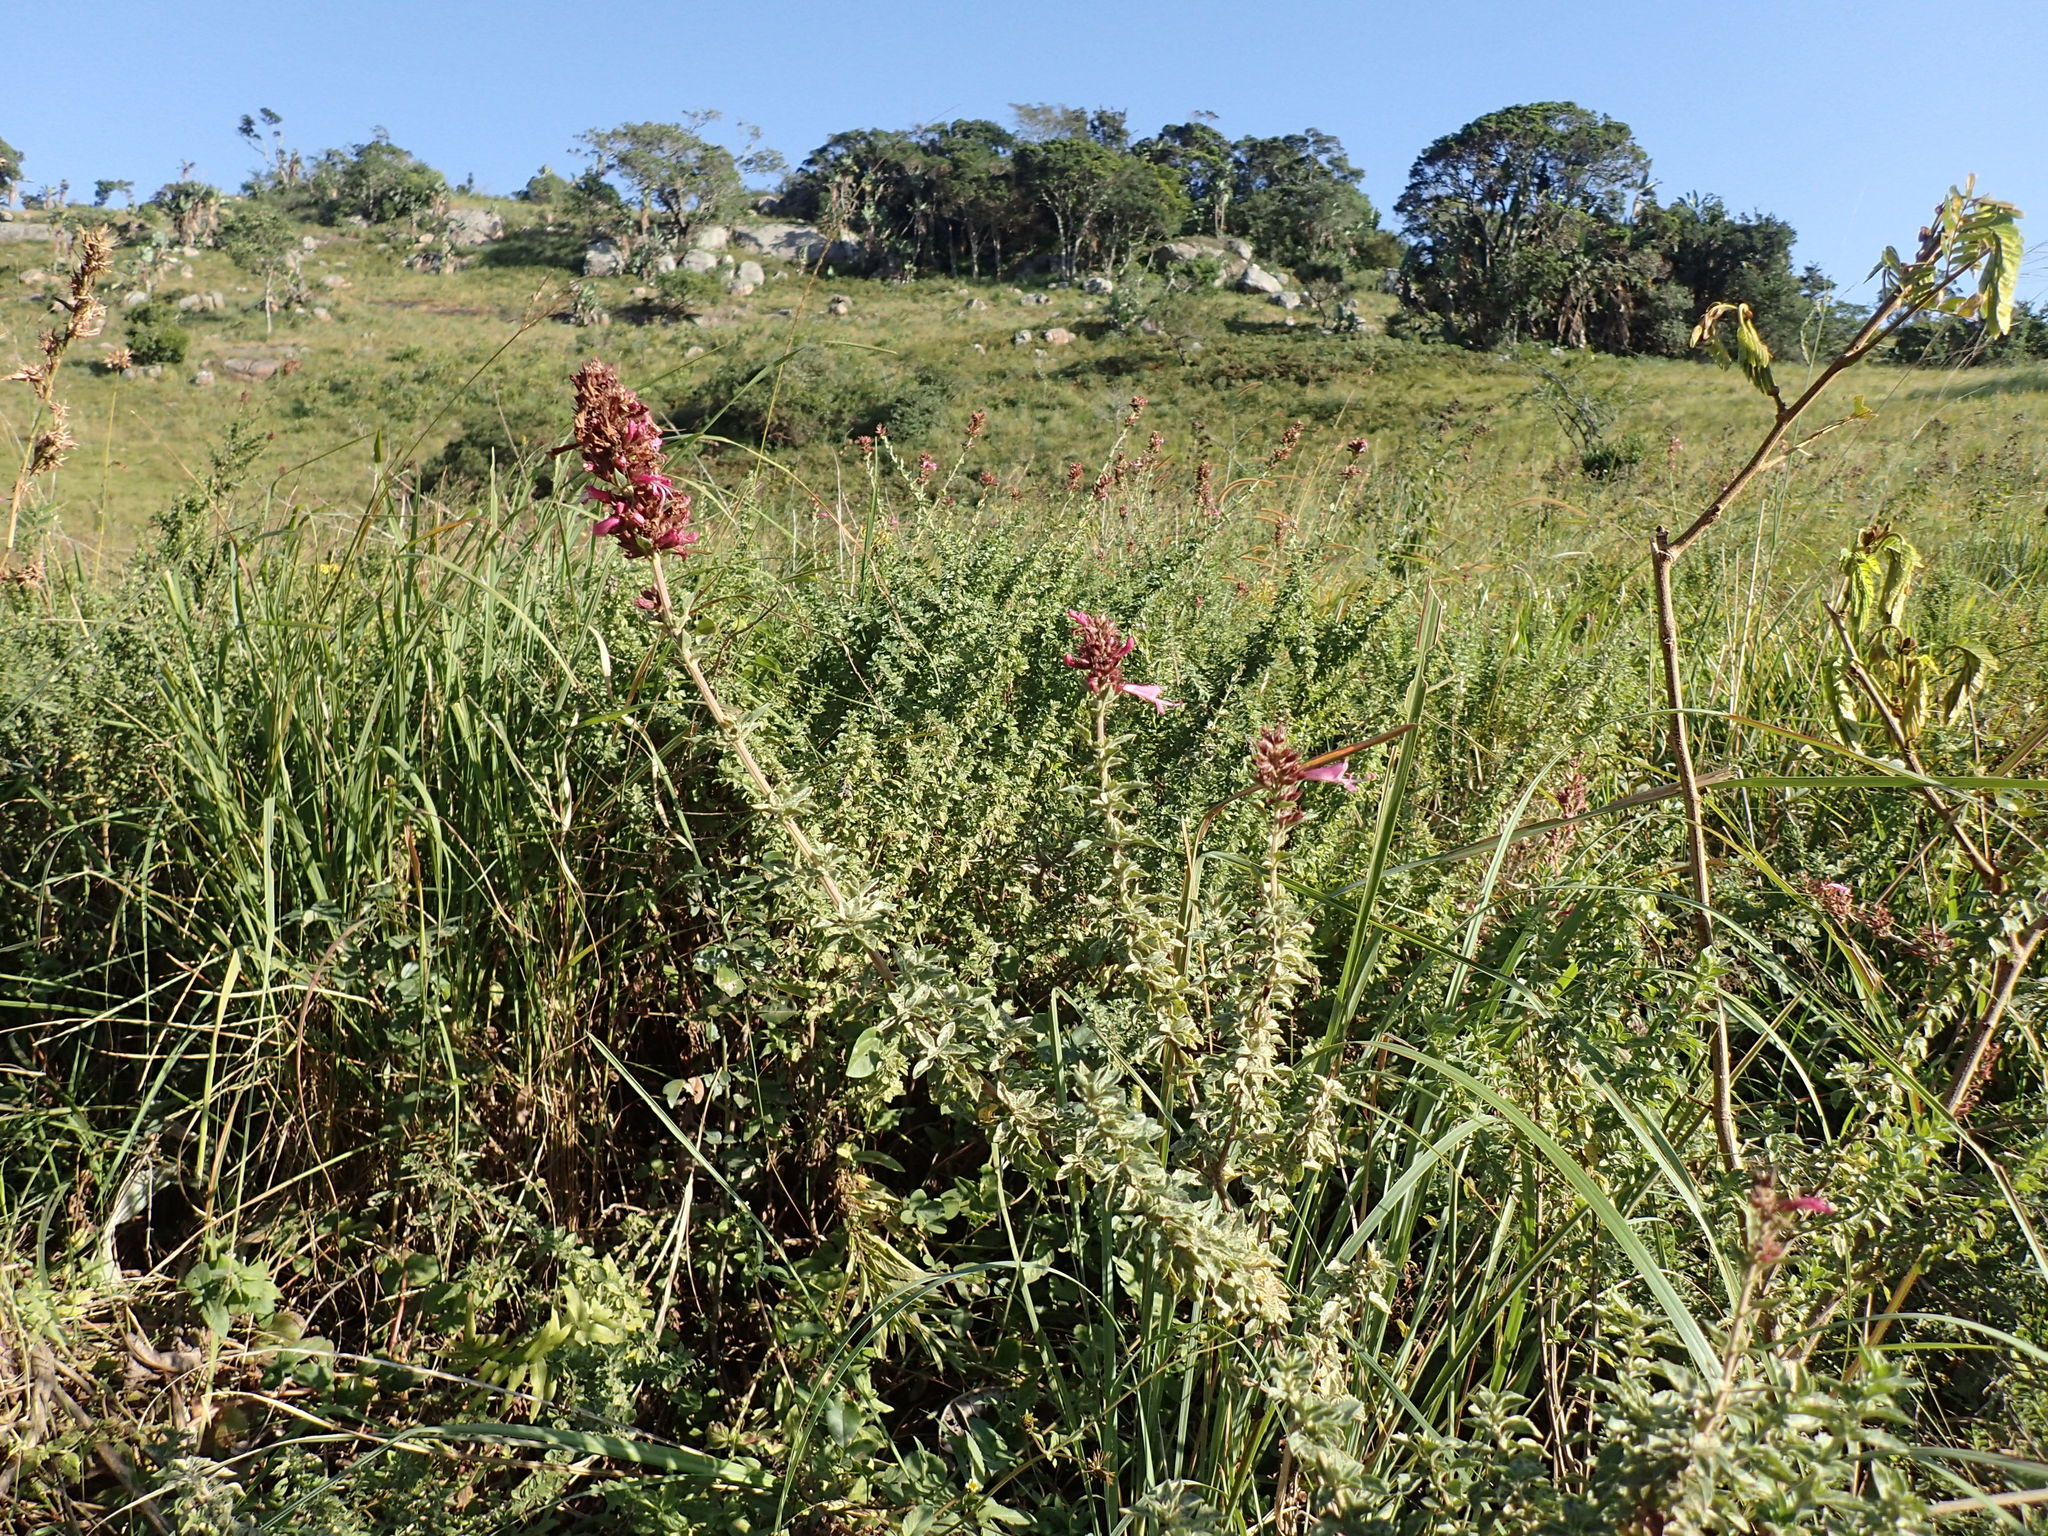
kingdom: Plantae
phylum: Tracheophyta
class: Magnoliopsida
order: Lamiales
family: Lamiaceae
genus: Syncolostemon
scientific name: Syncolostemon densiflorus
